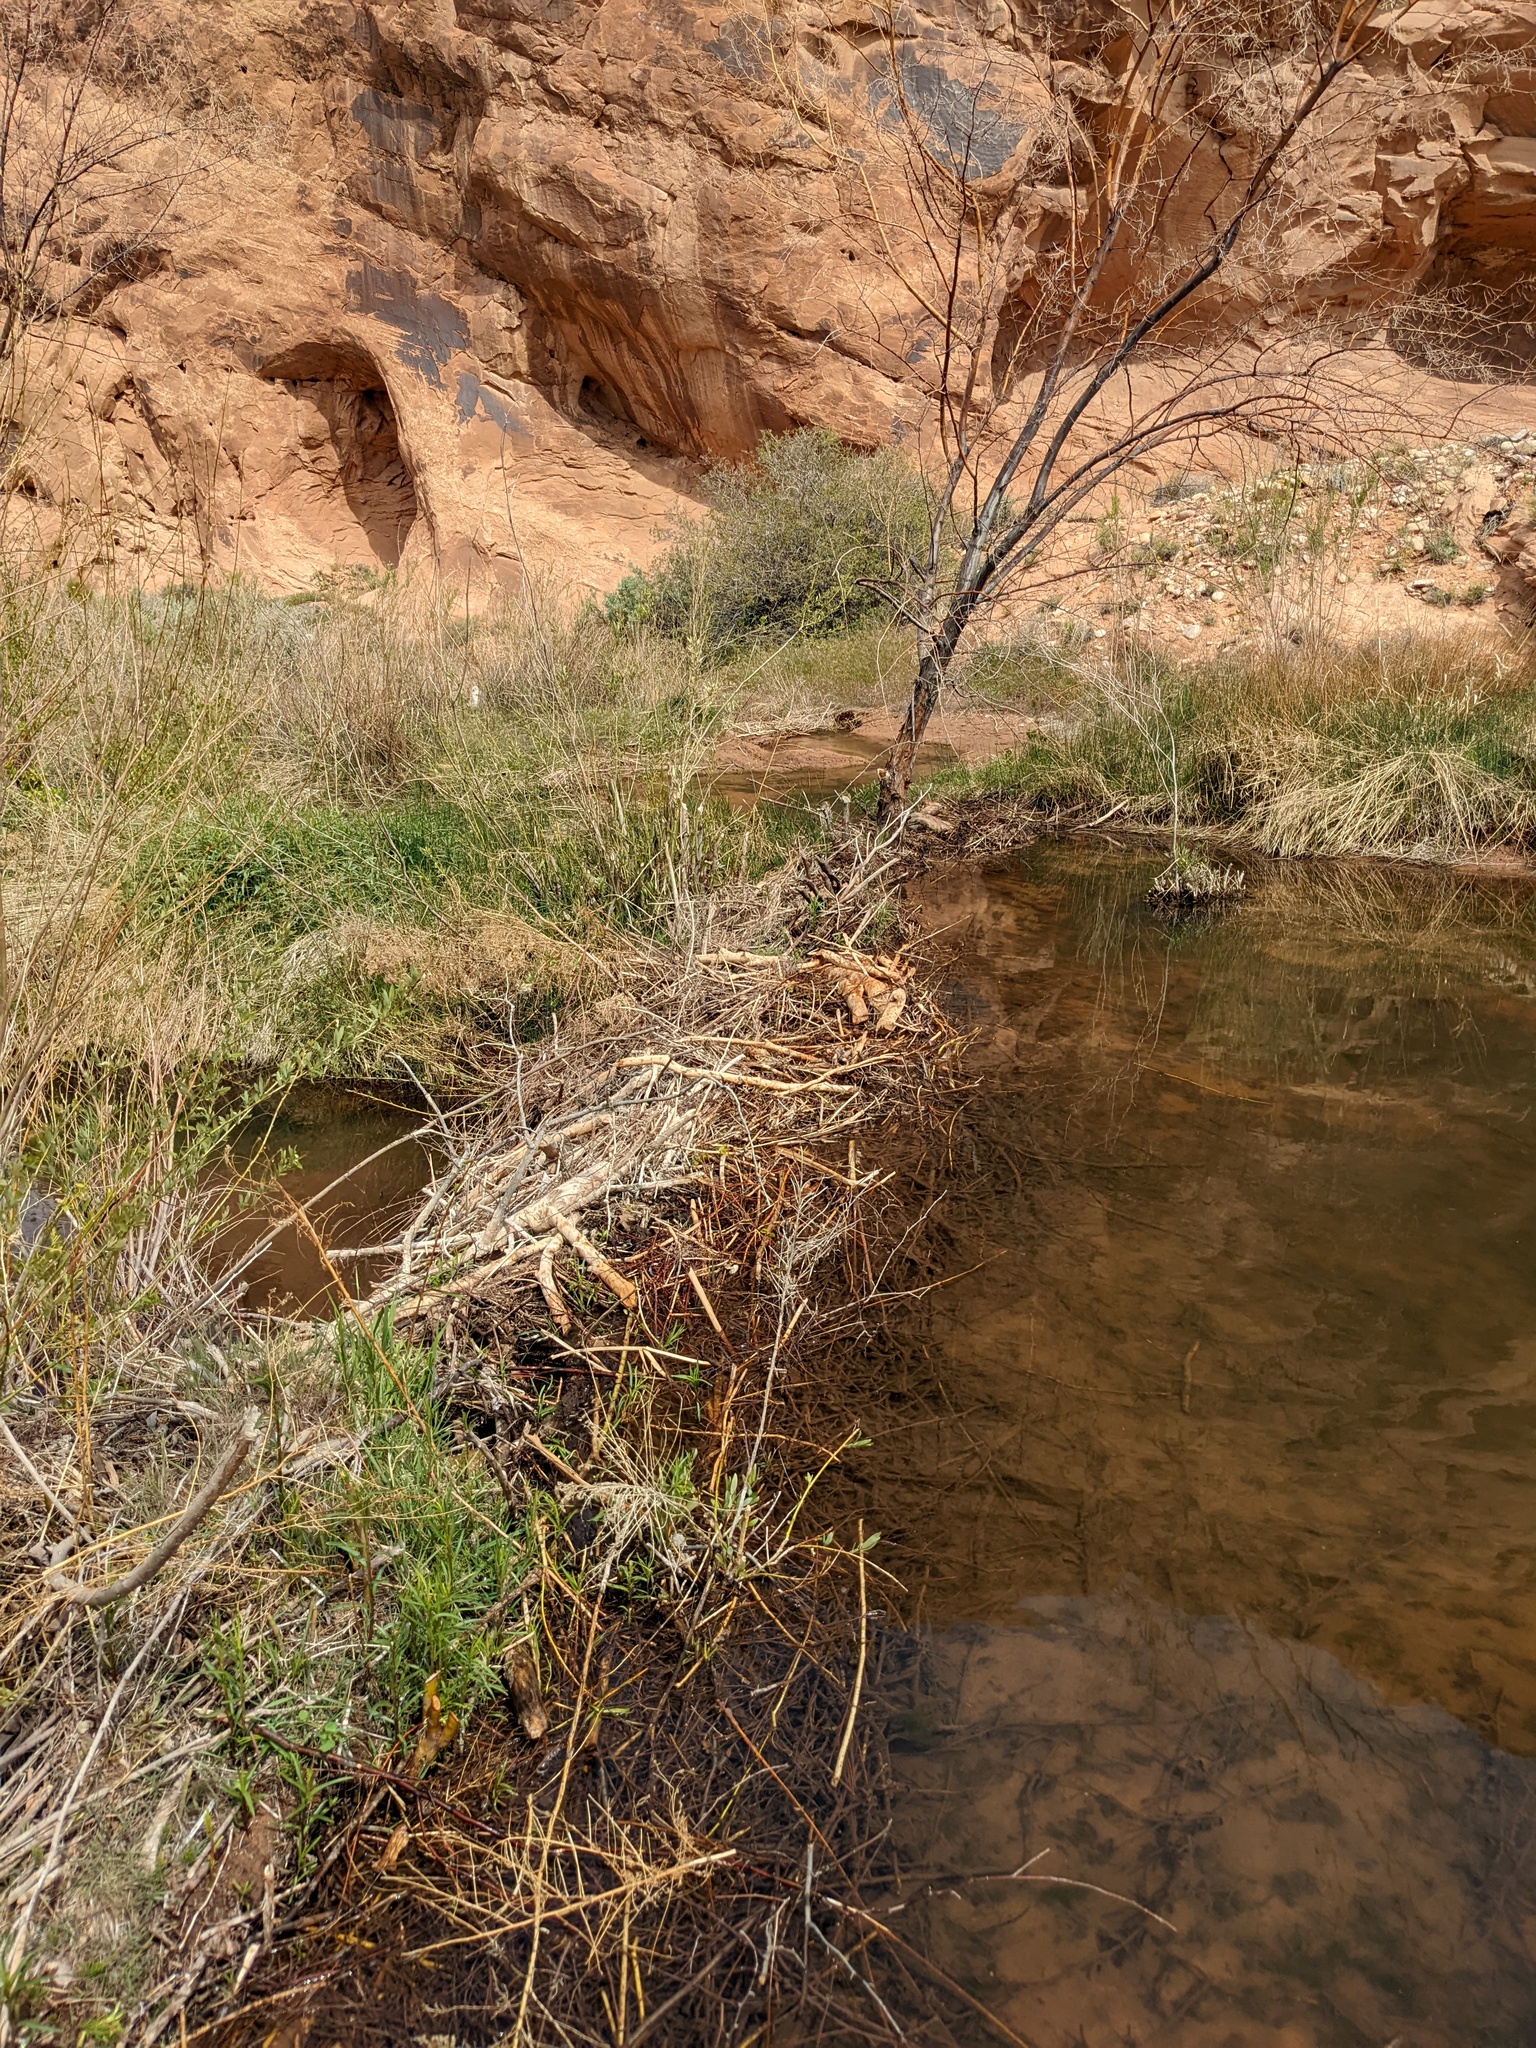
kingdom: Animalia
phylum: Chordata
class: Mammalia
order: Rodentia
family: Castoridae
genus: Castor
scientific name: Castor canadensis
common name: American beaver
